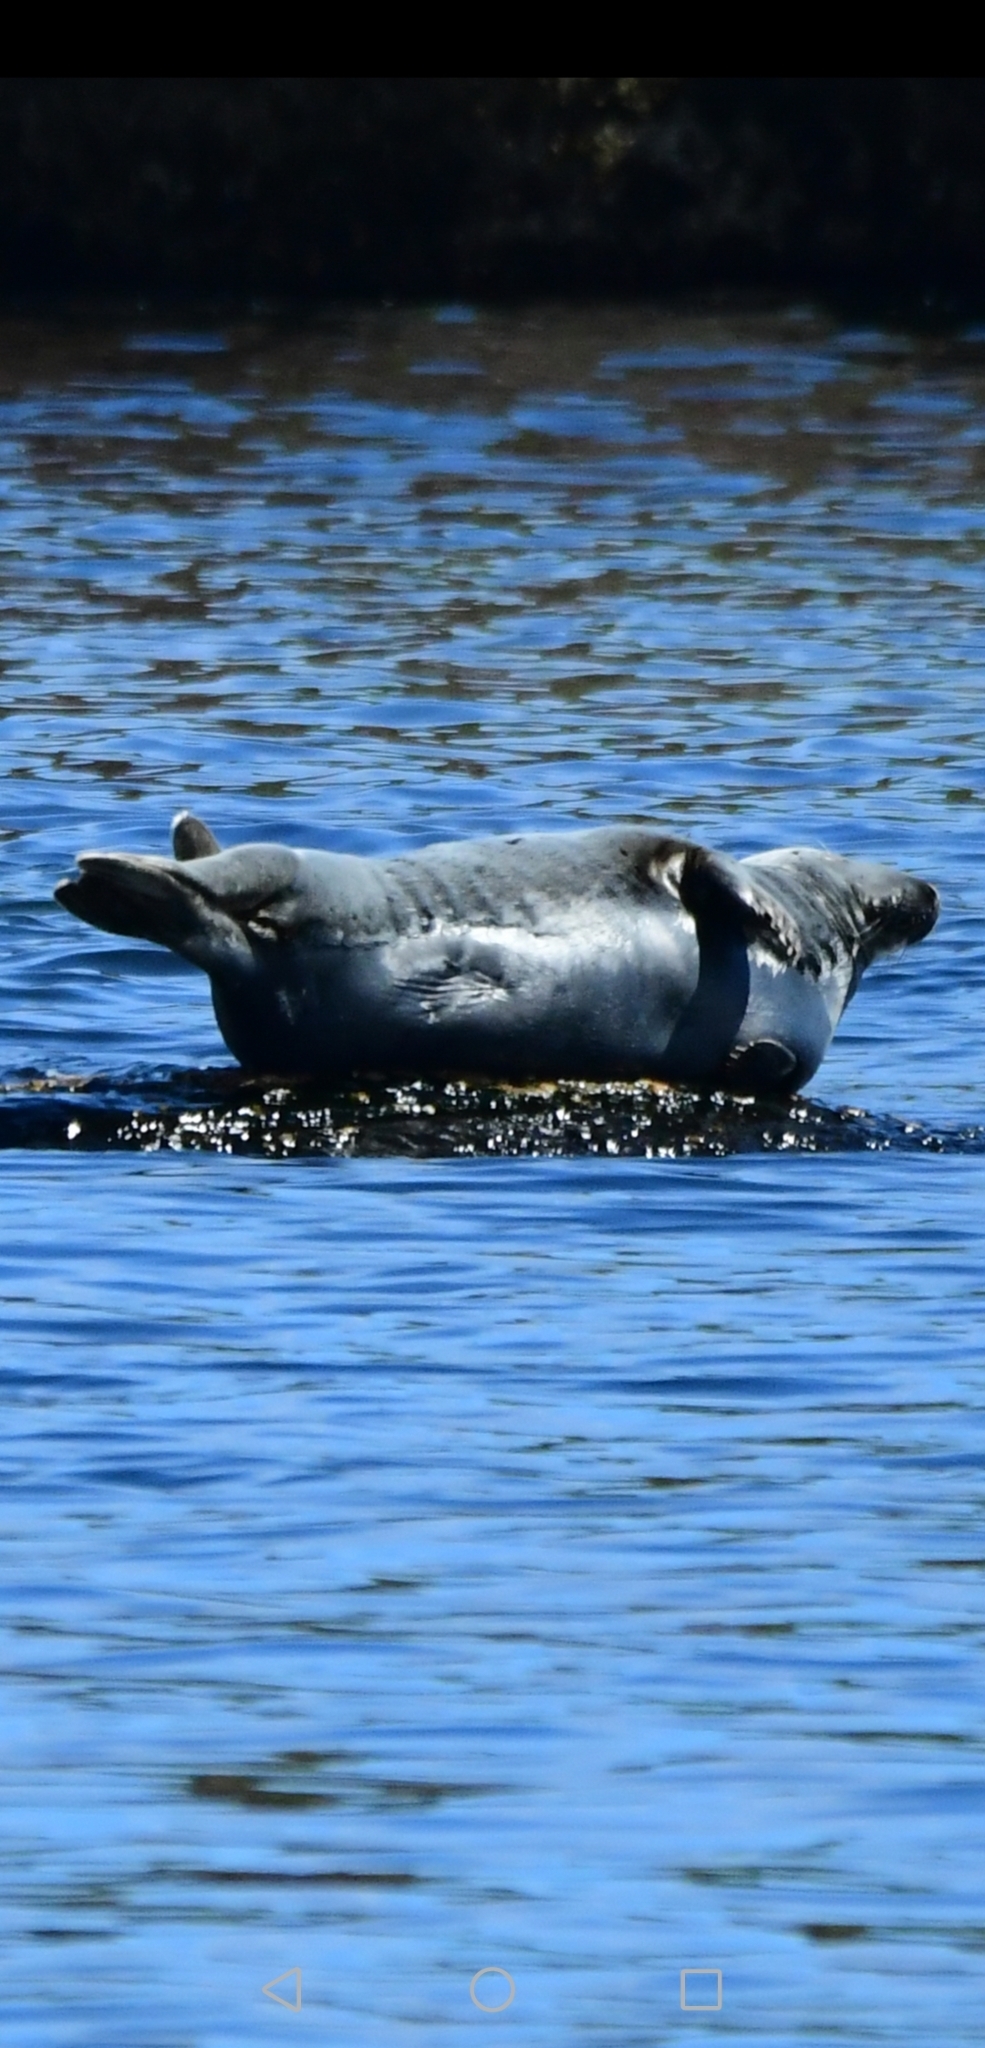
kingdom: Animalia
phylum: Chordata
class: Mammalia
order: Carnivora
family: Phocidae
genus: Halichoerus
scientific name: Halichoerus grypus
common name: Grey seal
